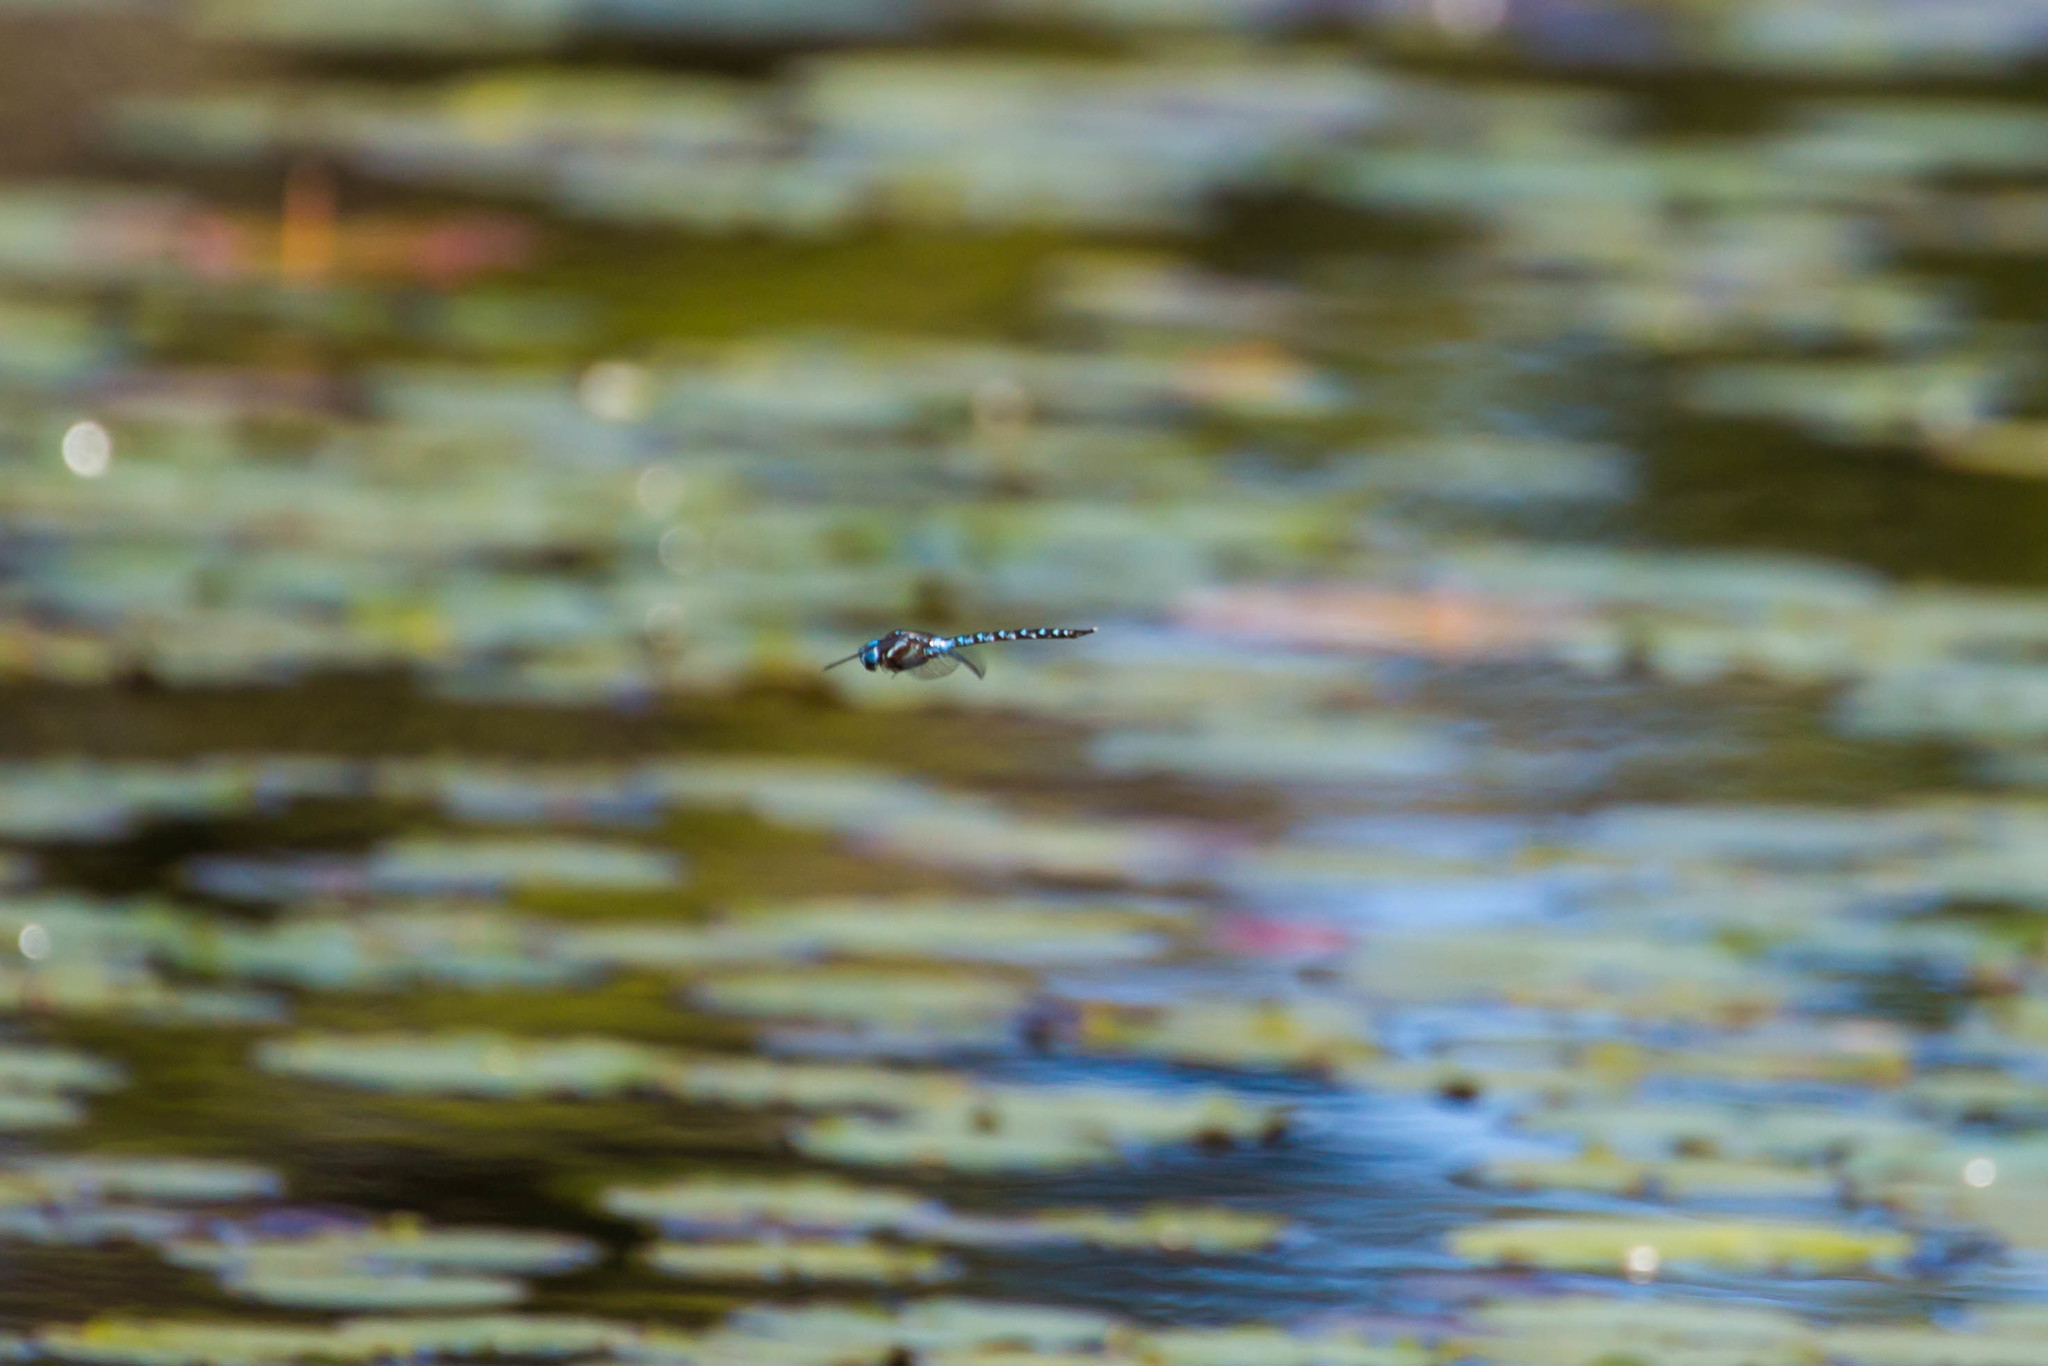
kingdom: Animalia
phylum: Arthropoda
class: Insecta
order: Odonata
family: Aeshnidae
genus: Rhionaeschna
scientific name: Rhionaeschna mutata
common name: Spatterdock darner
